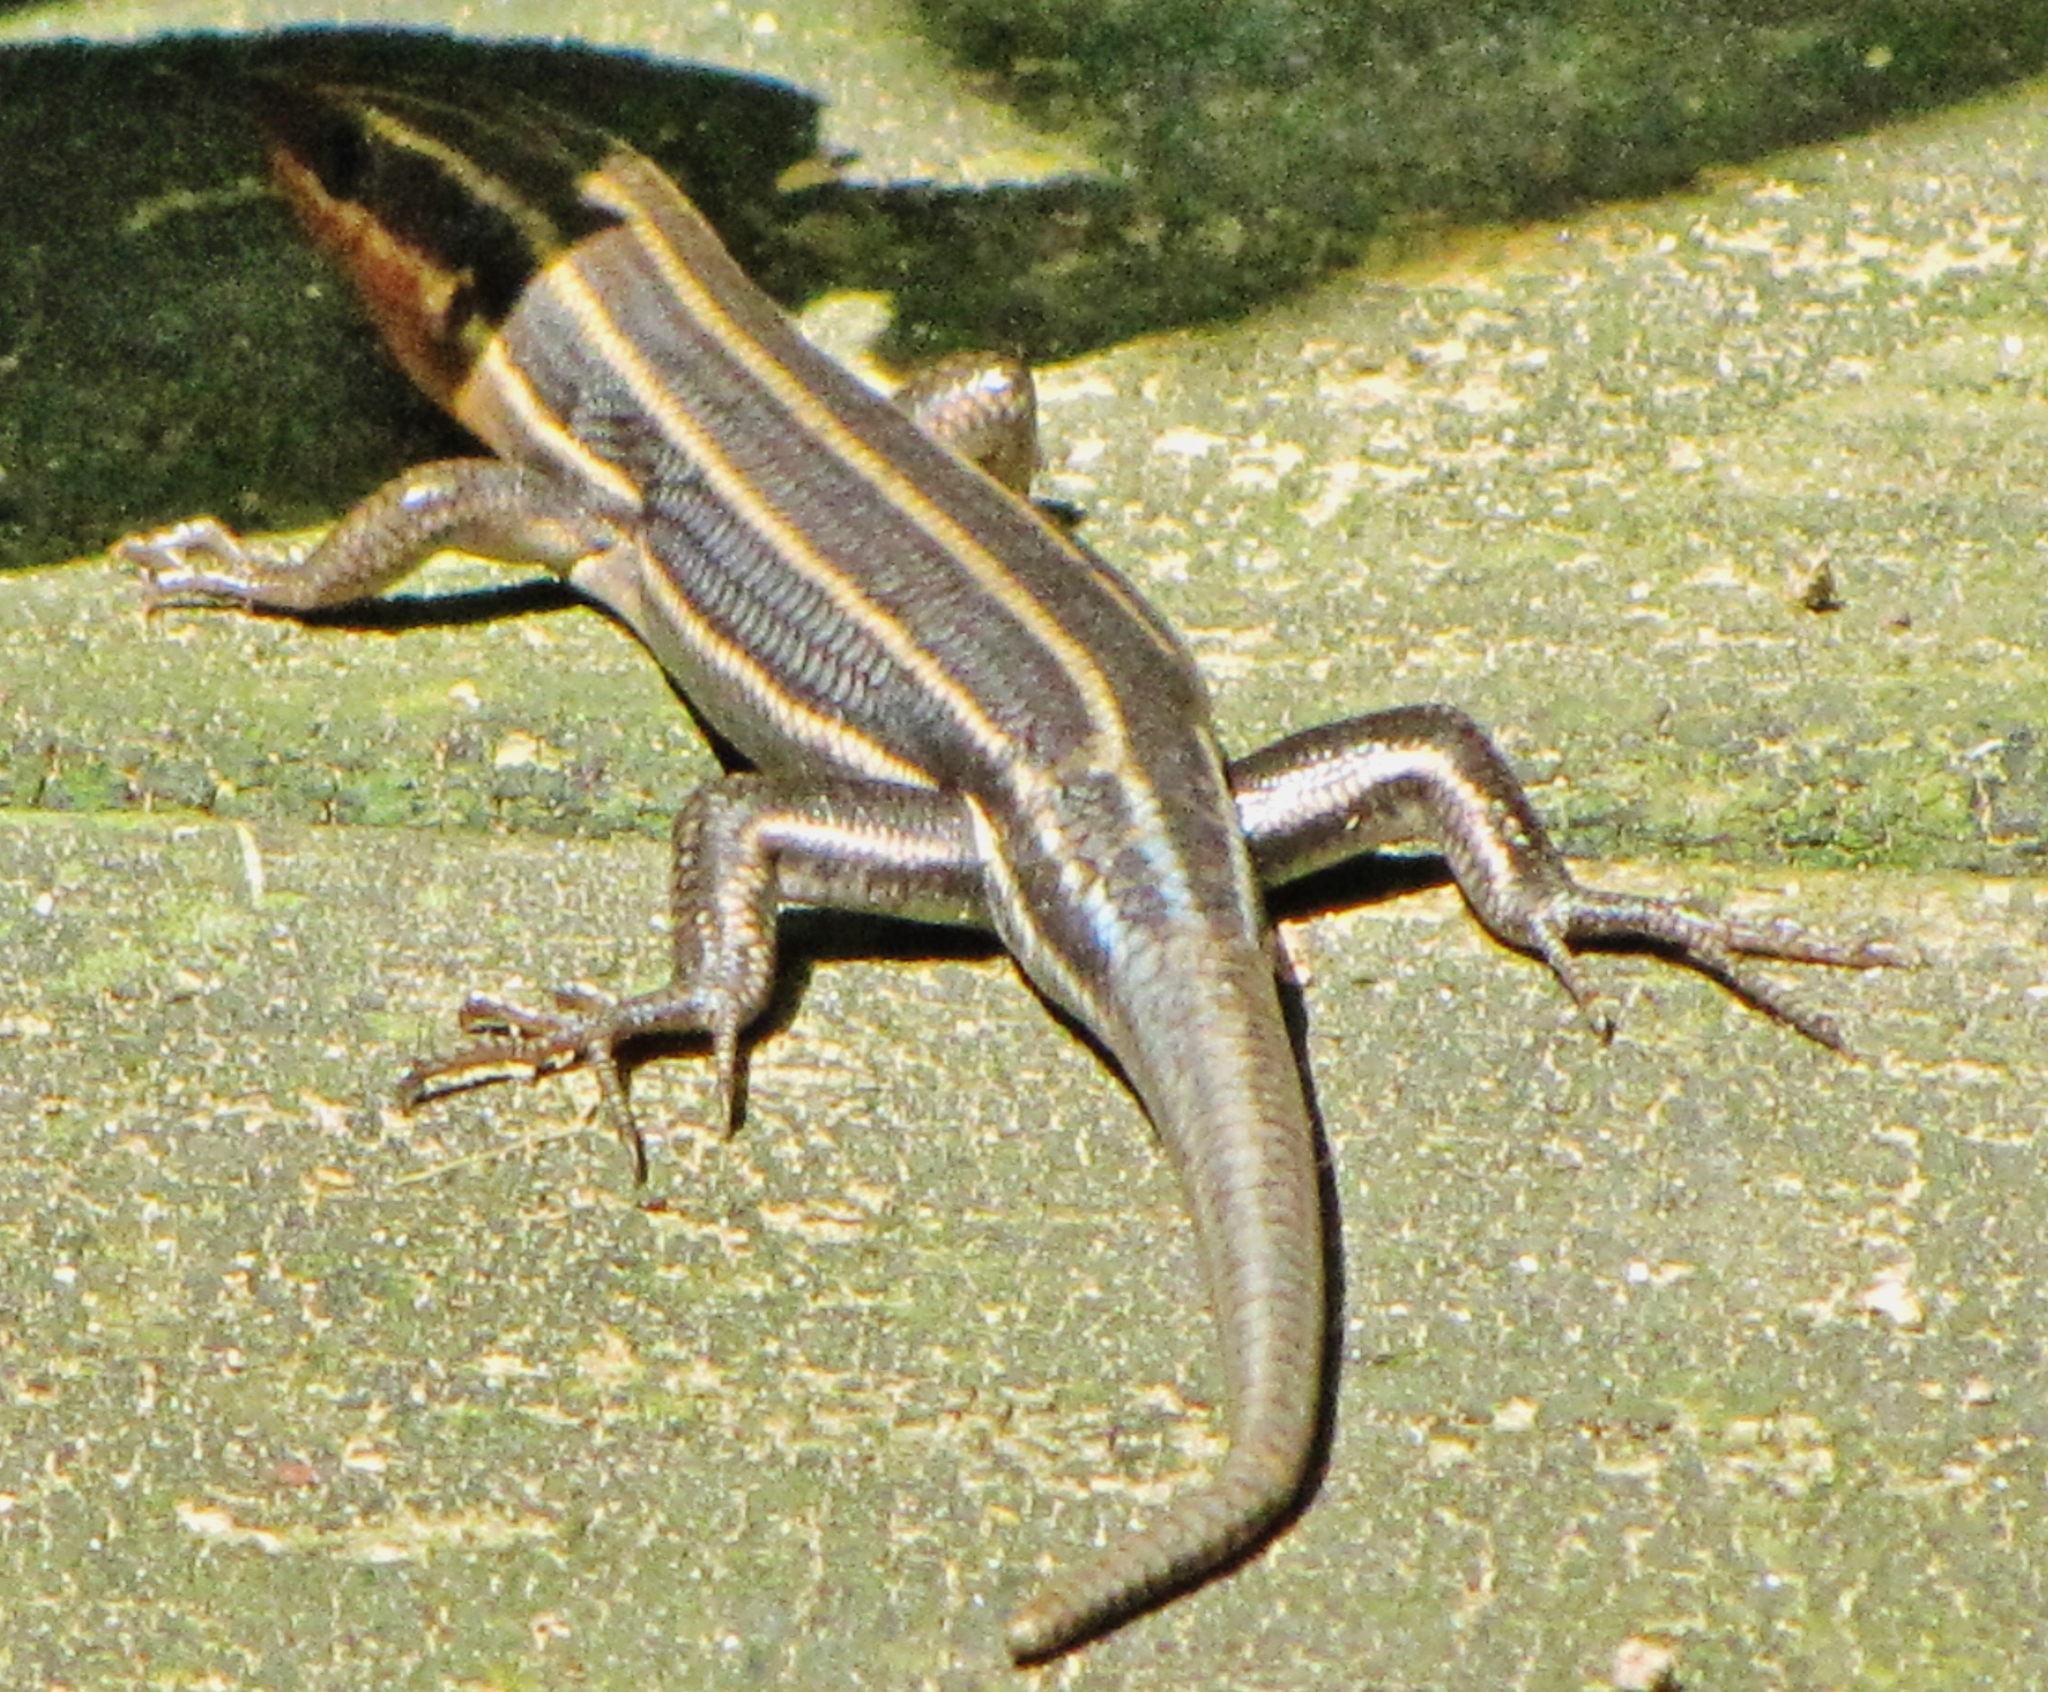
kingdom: Animalia
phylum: Chordata
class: Squamata
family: Scincidae
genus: Plestiodon
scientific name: Plestiodon fasciatus
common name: Five-lined skink
